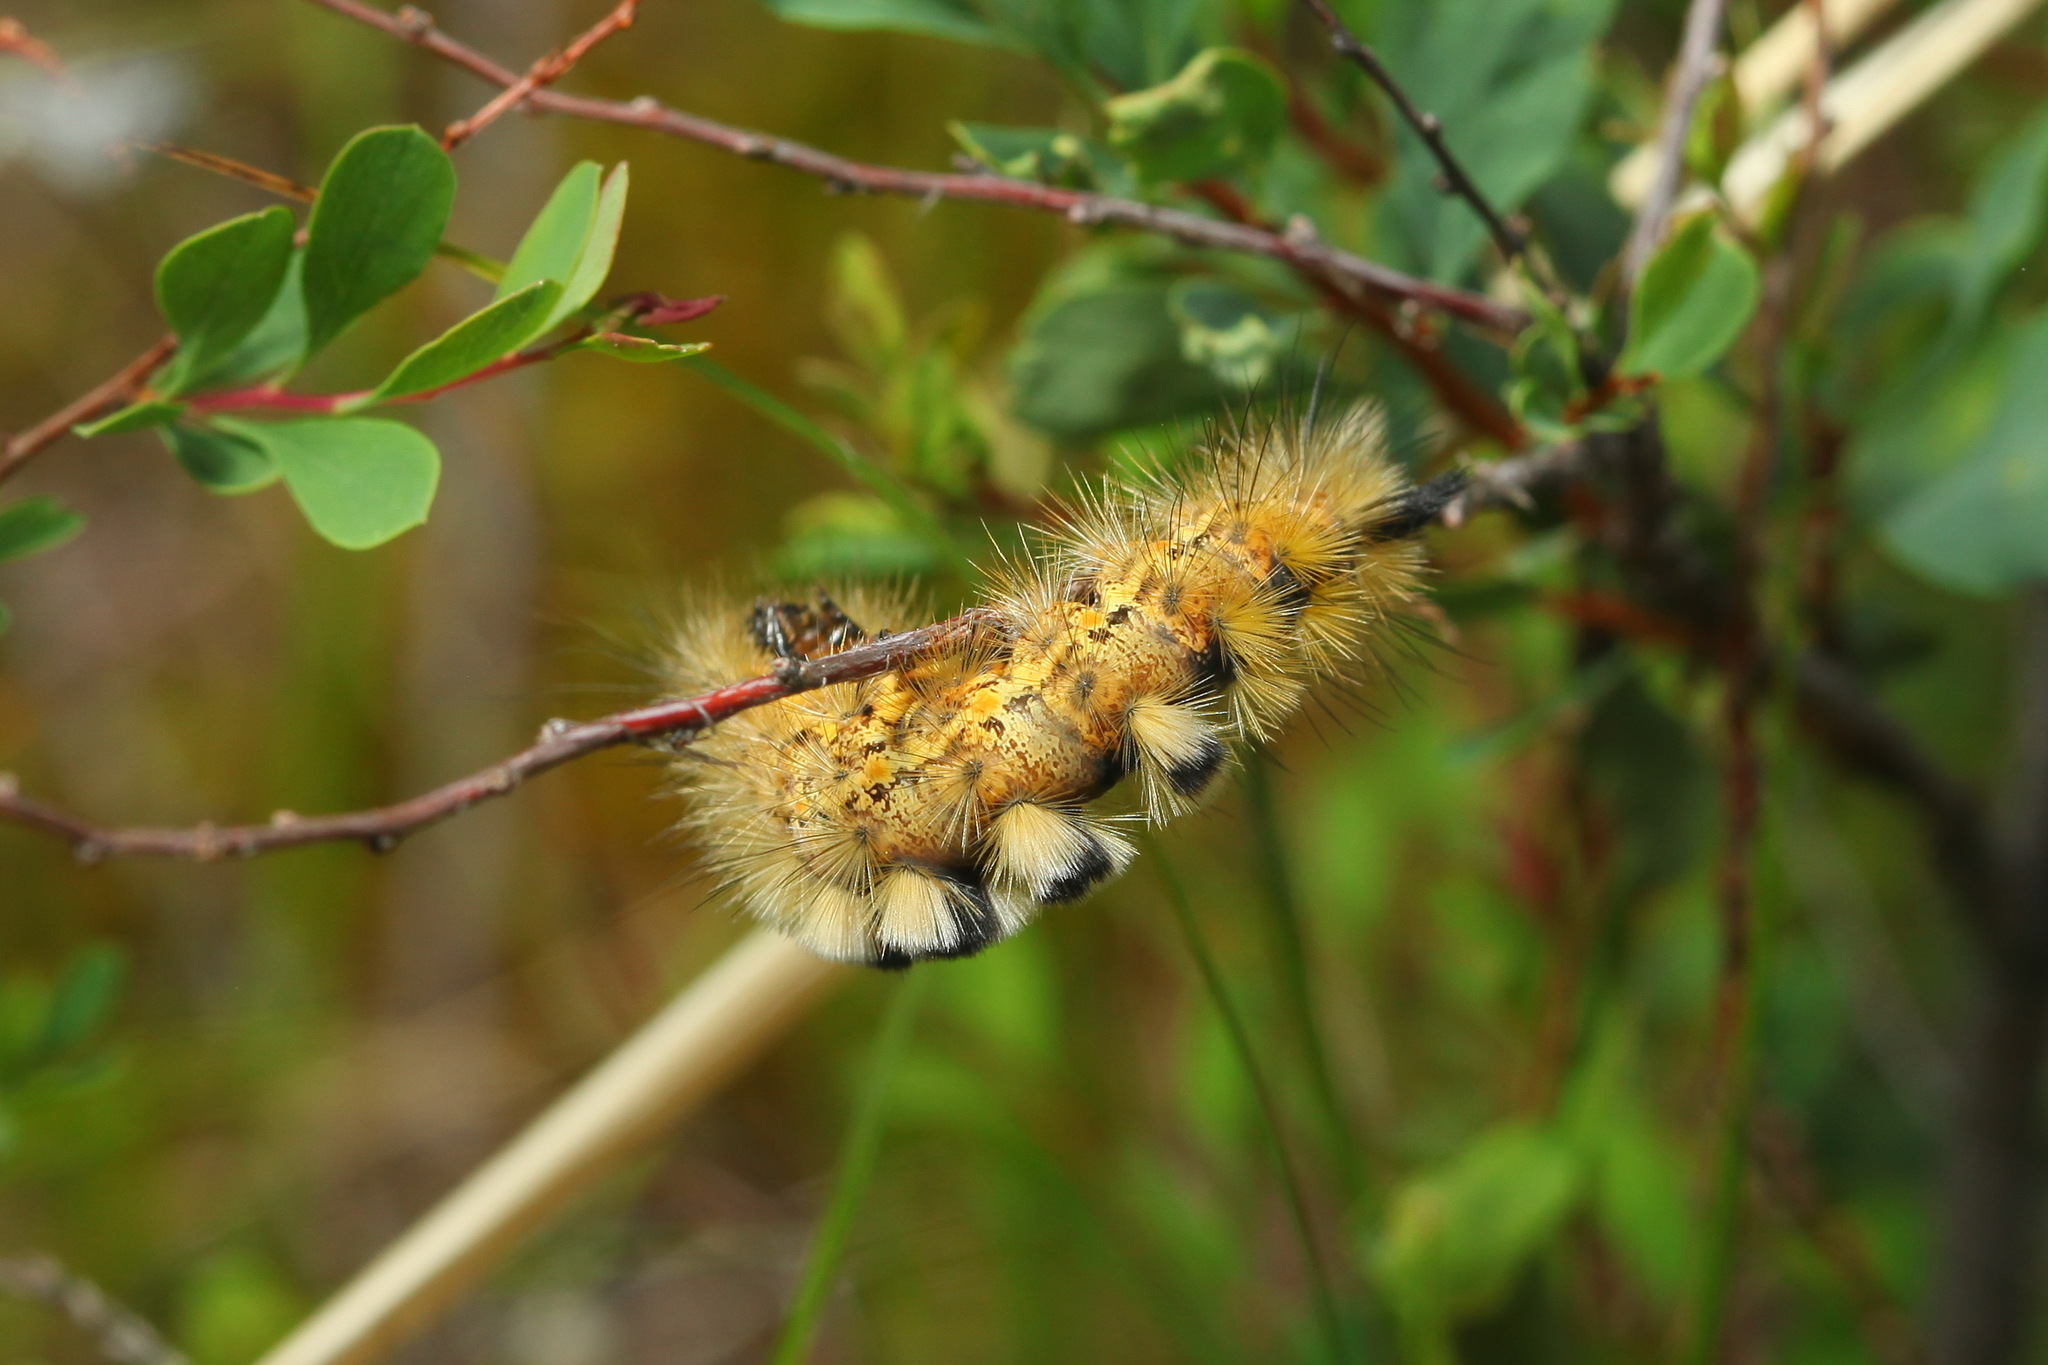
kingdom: Animalia
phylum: Arthropoda
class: Insecta
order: Lepidoptera
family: Erebidae
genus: Orgyia
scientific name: Orgyia antiquoides
